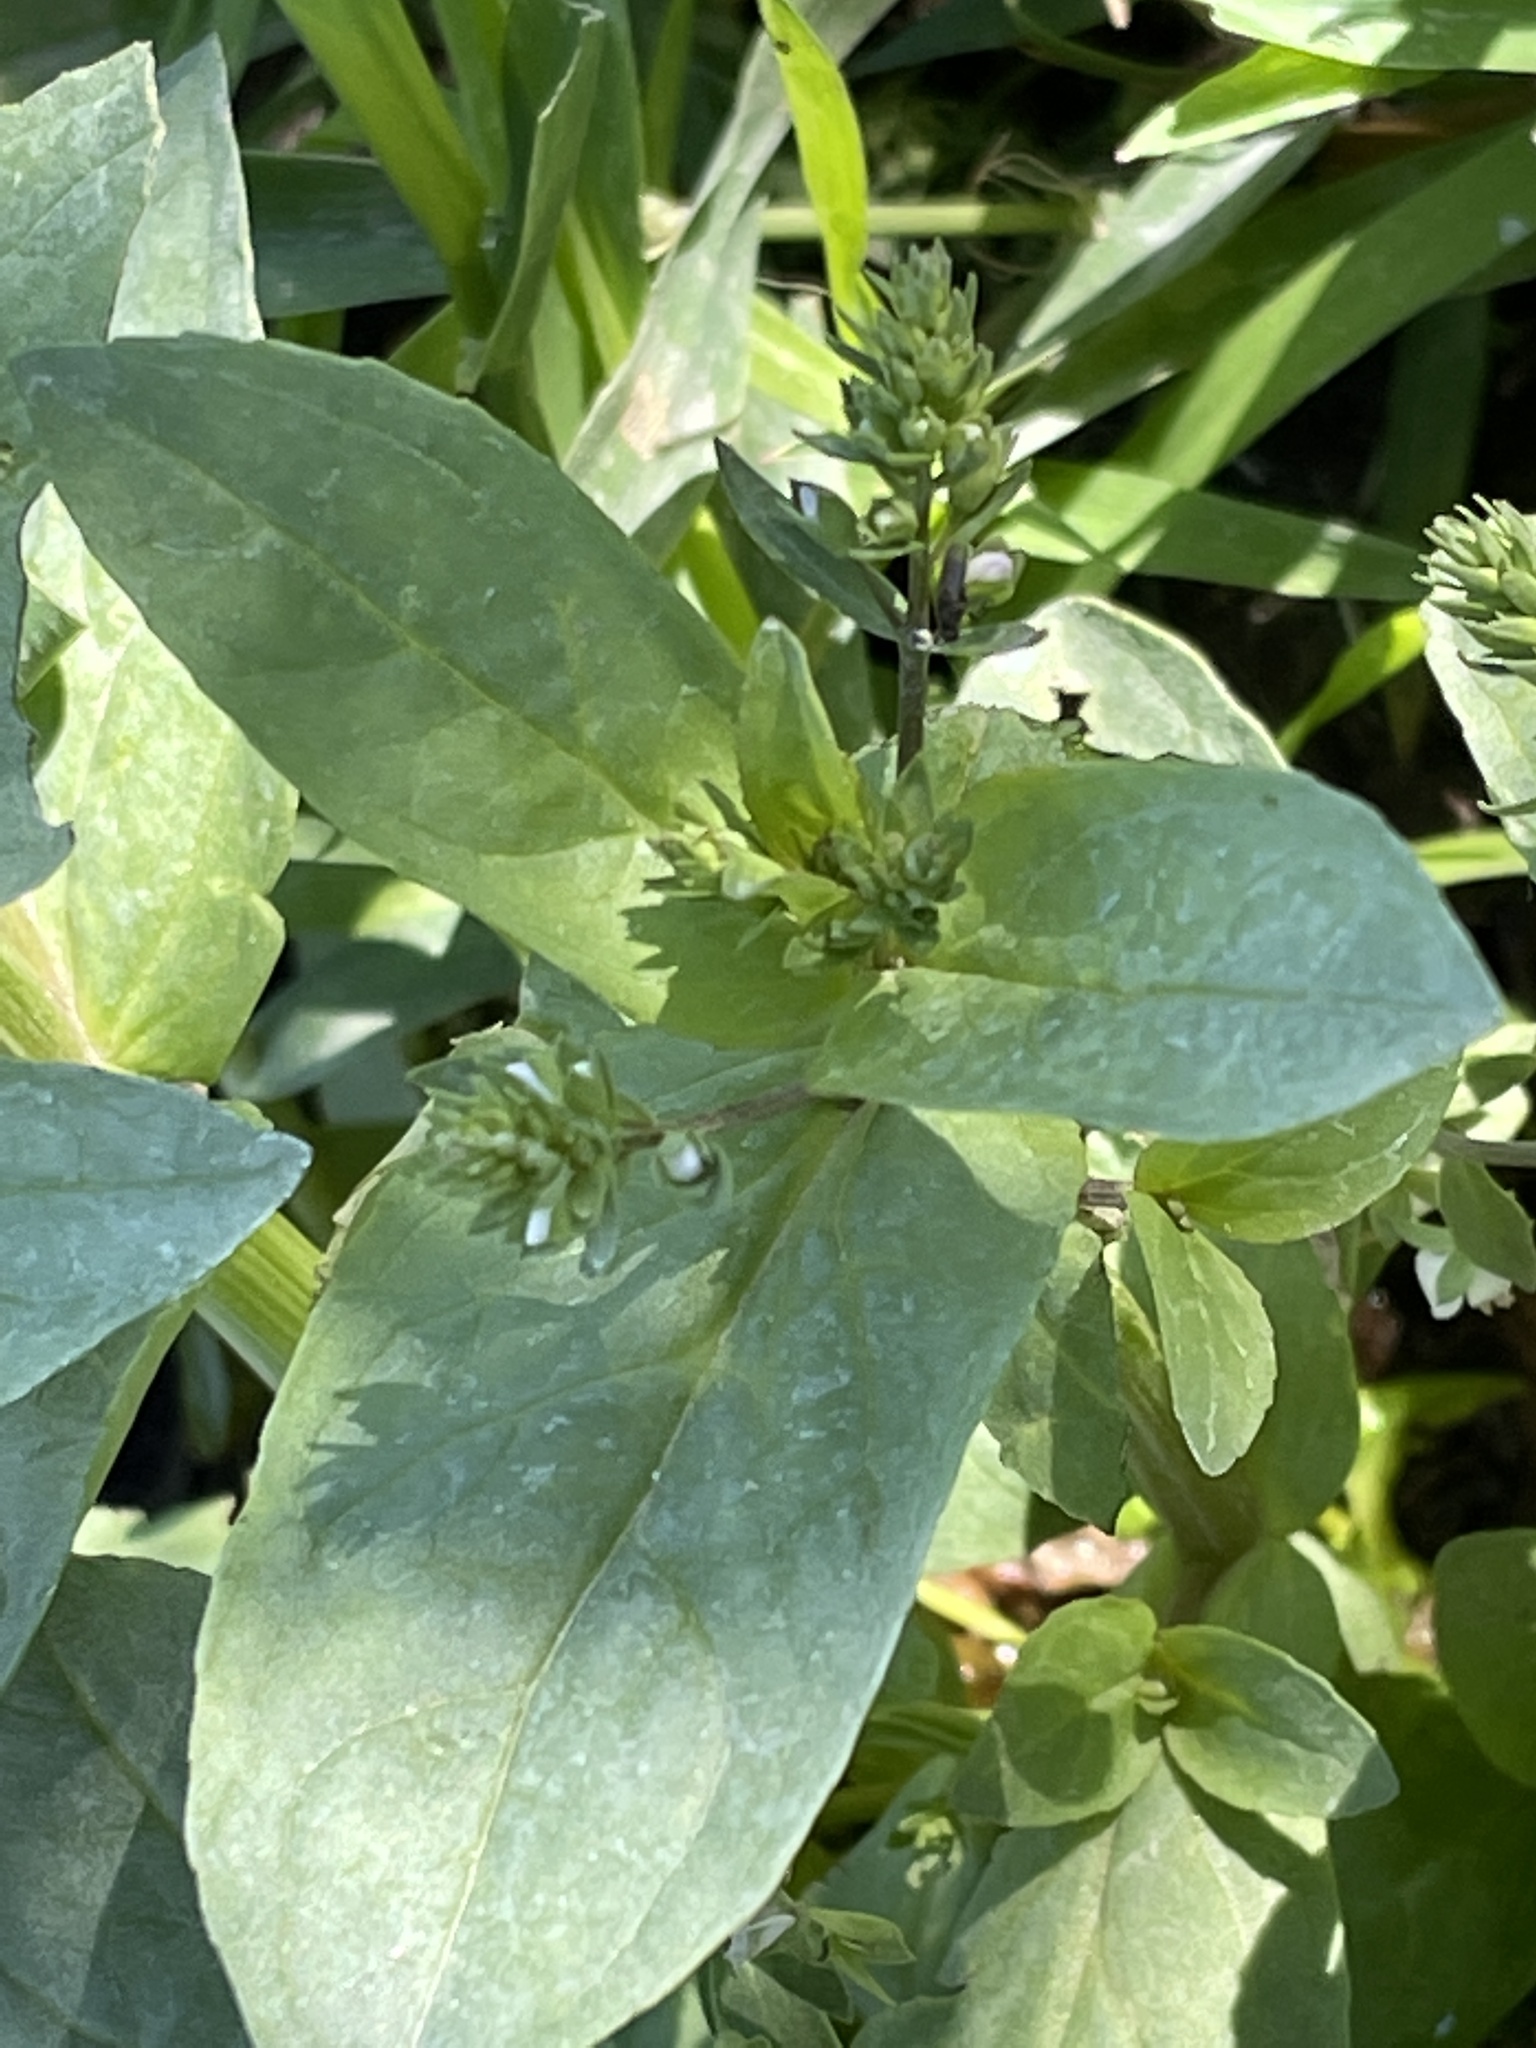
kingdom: Plantae
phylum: Tracheophyta
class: Magnoliopsida
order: Lamiales
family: Plantaginaceae
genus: Veronica
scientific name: Veronica anagallis-aquatica
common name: Water speedwell
